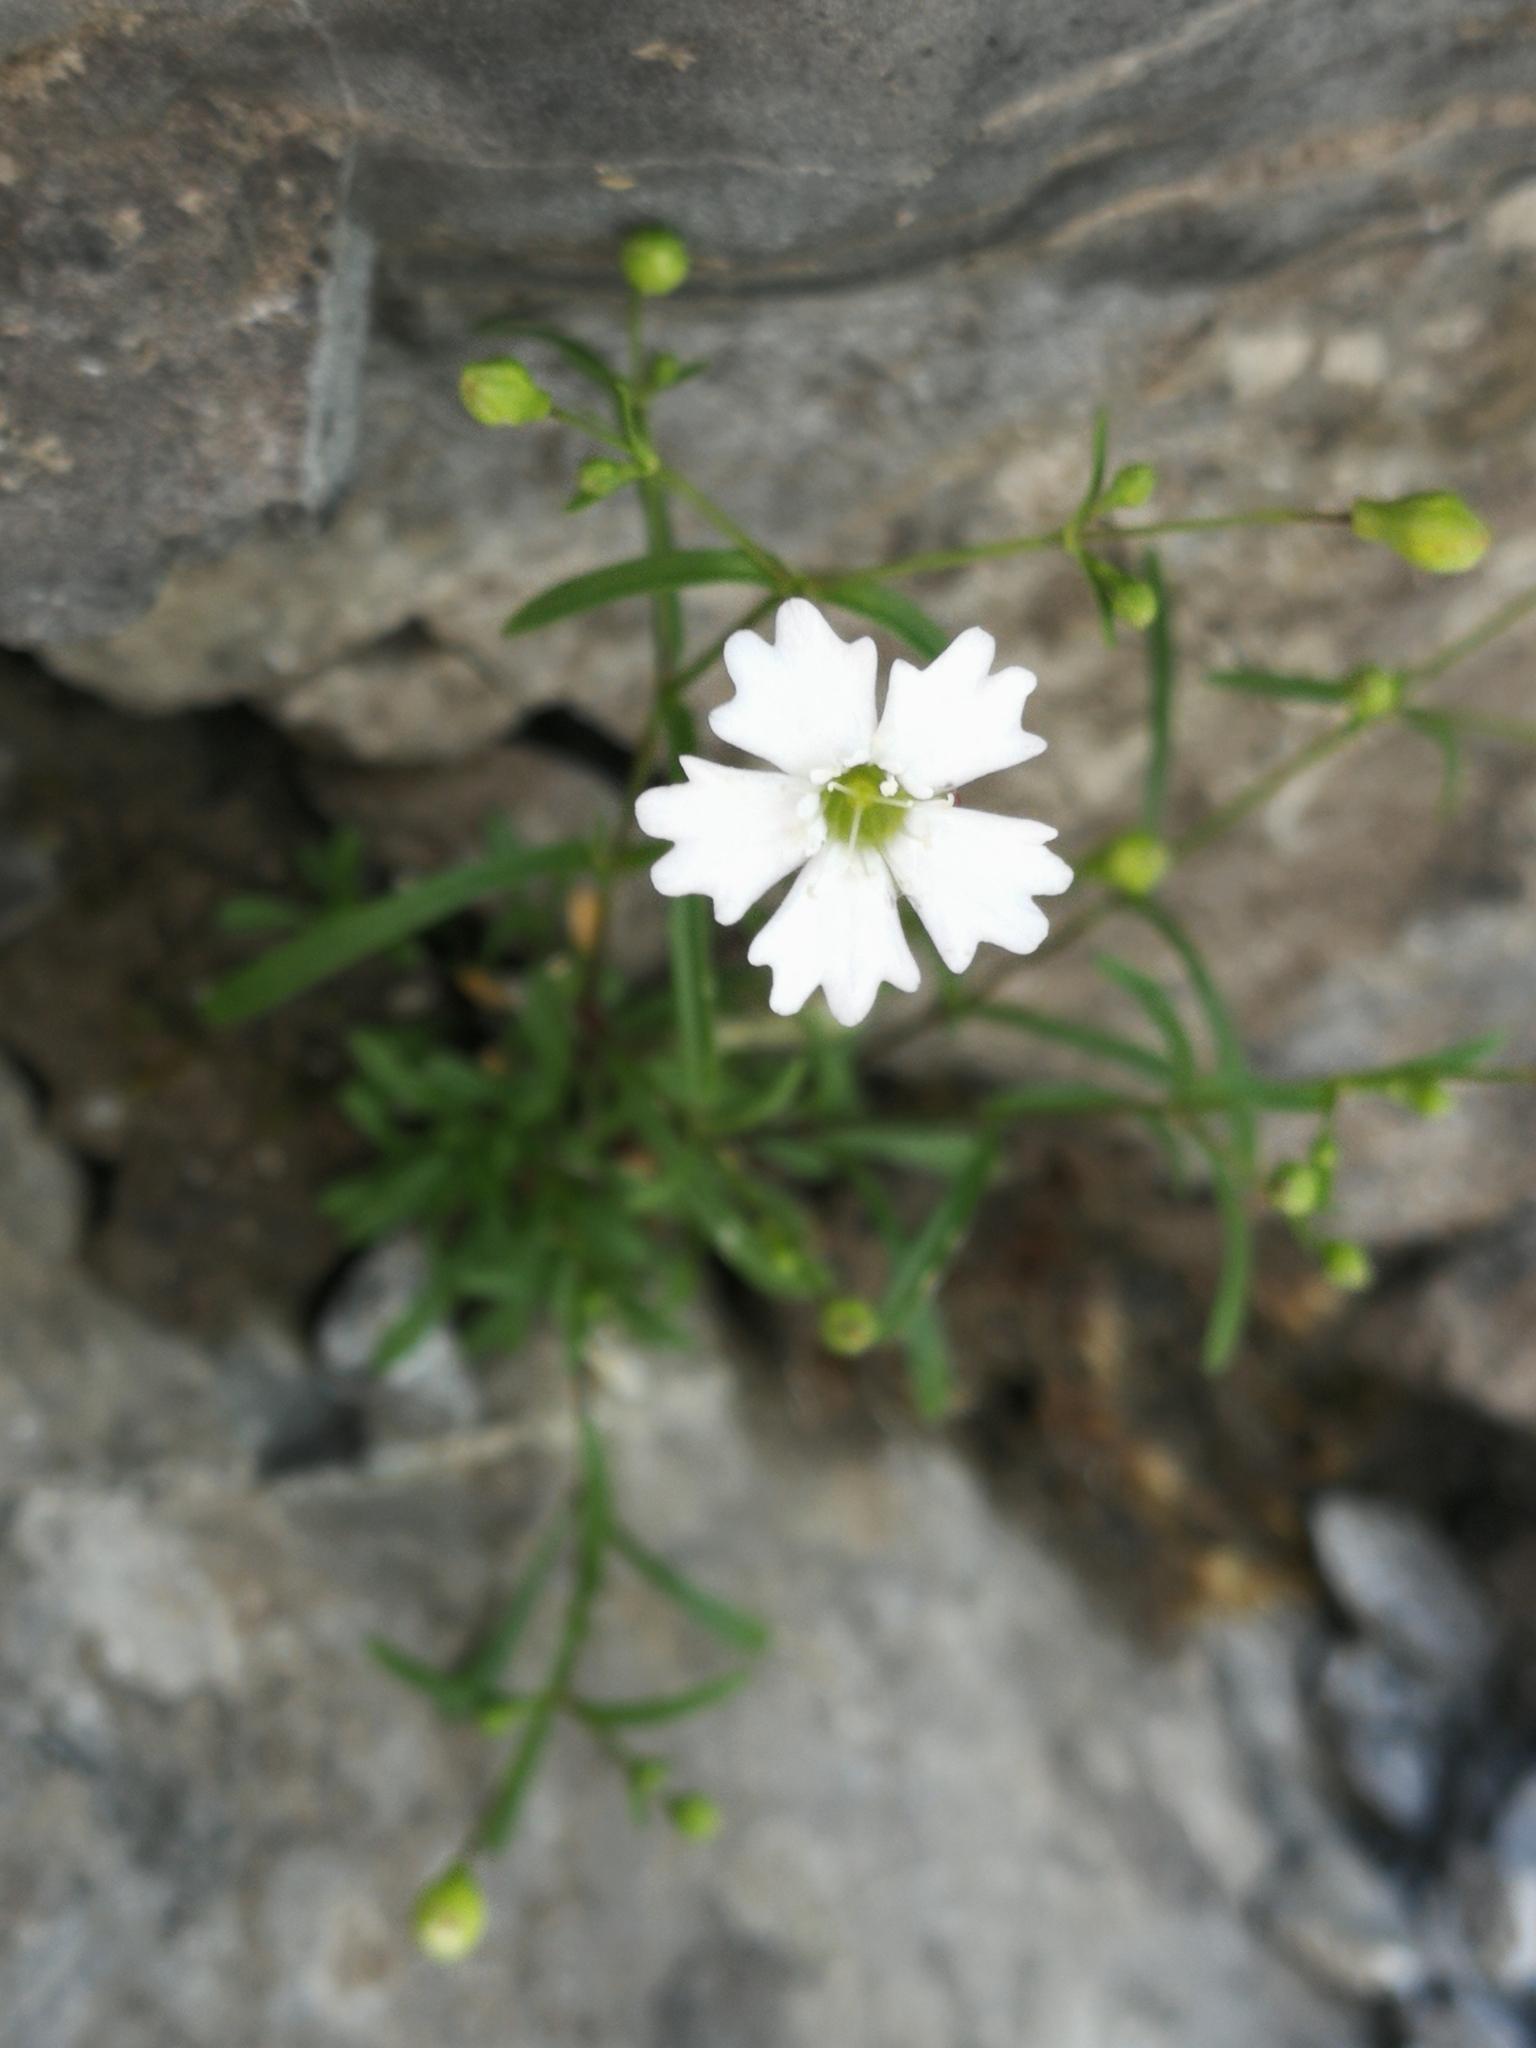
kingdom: Plantae
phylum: Tracheophyta
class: Magnoliopsida
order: Caryophyllales
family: Caryophyllaceae
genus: Heliosperma
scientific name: Heliosperma pusillum
